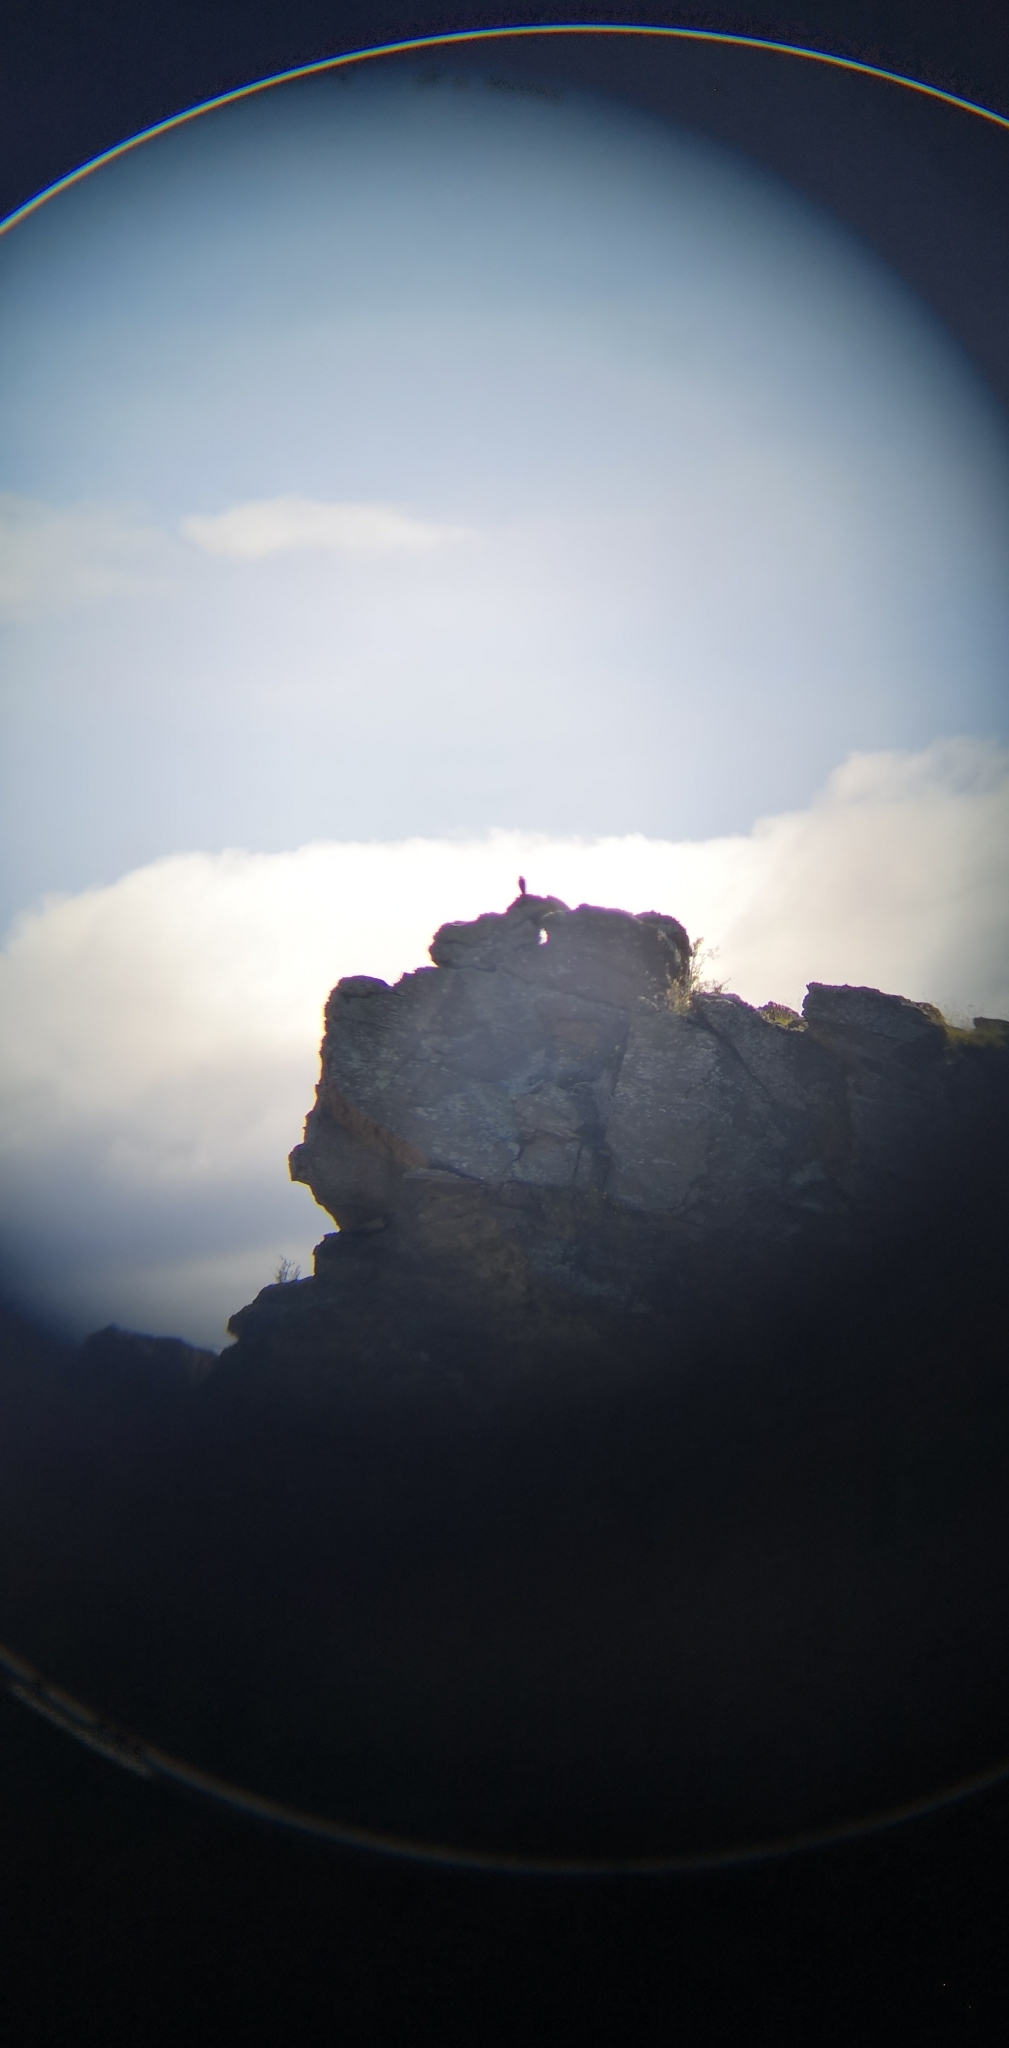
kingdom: Animalia
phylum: Chordata
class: Aves
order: Falconiformes
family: Falconidae
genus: Falco
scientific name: Falco novaeseelandiae
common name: New zealand falcon
